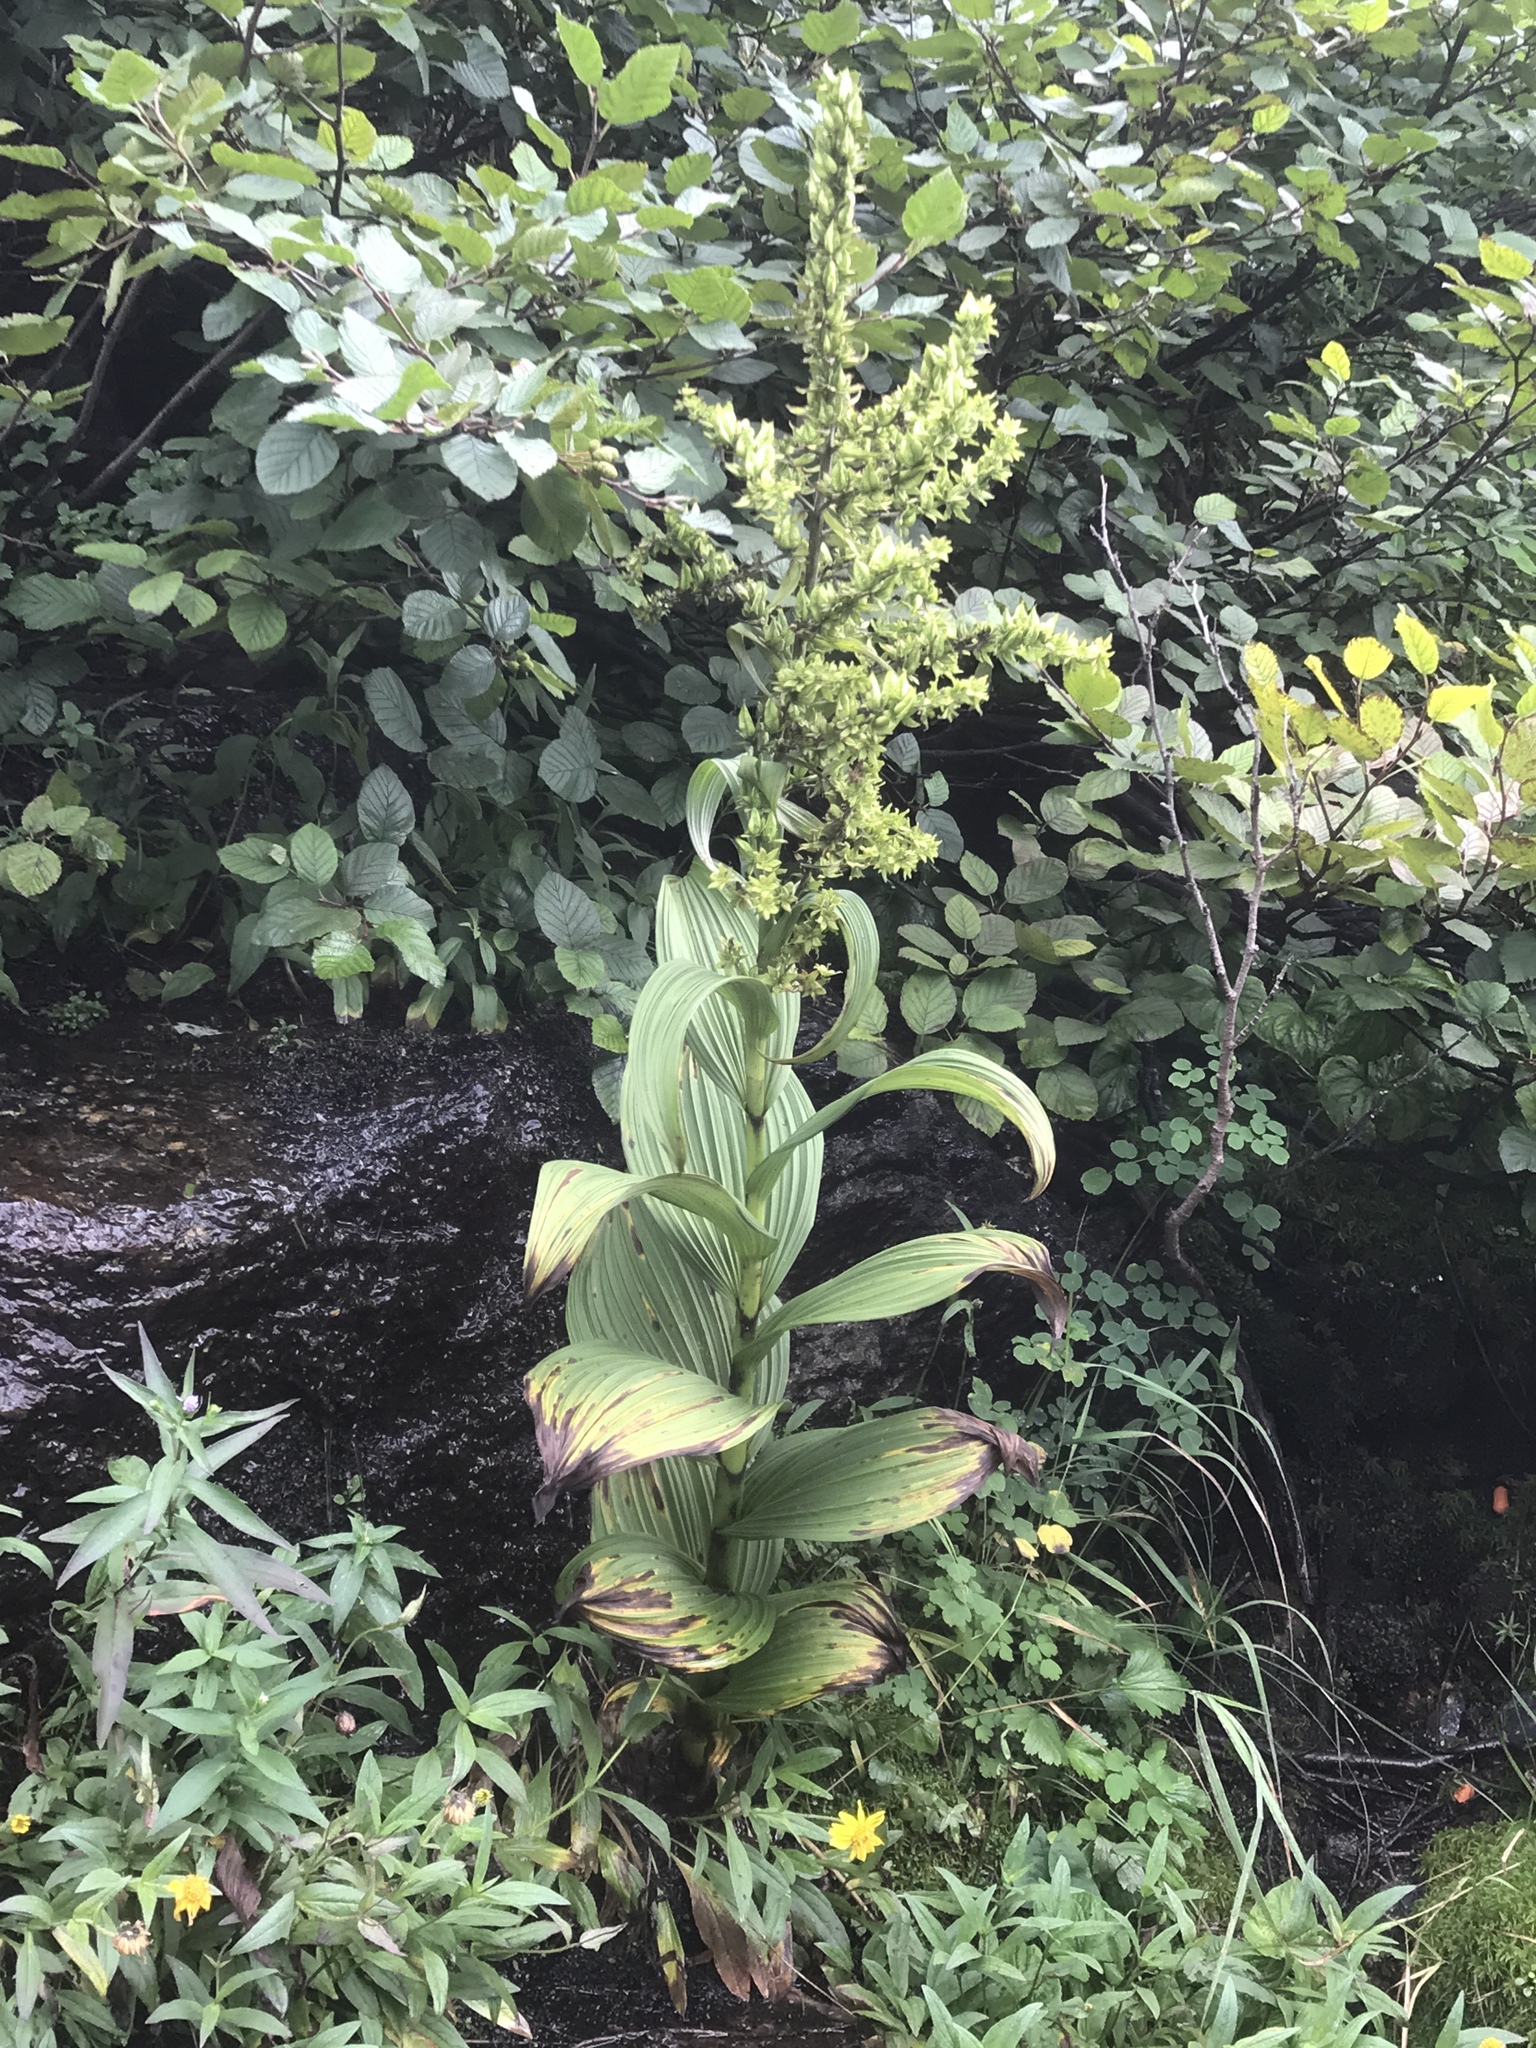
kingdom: Plantae
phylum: Tracheophyta
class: Liliopsida
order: Liliales
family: Melanthiaceae
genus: Veratrum
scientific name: Veratrum viride
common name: American false hellebore
